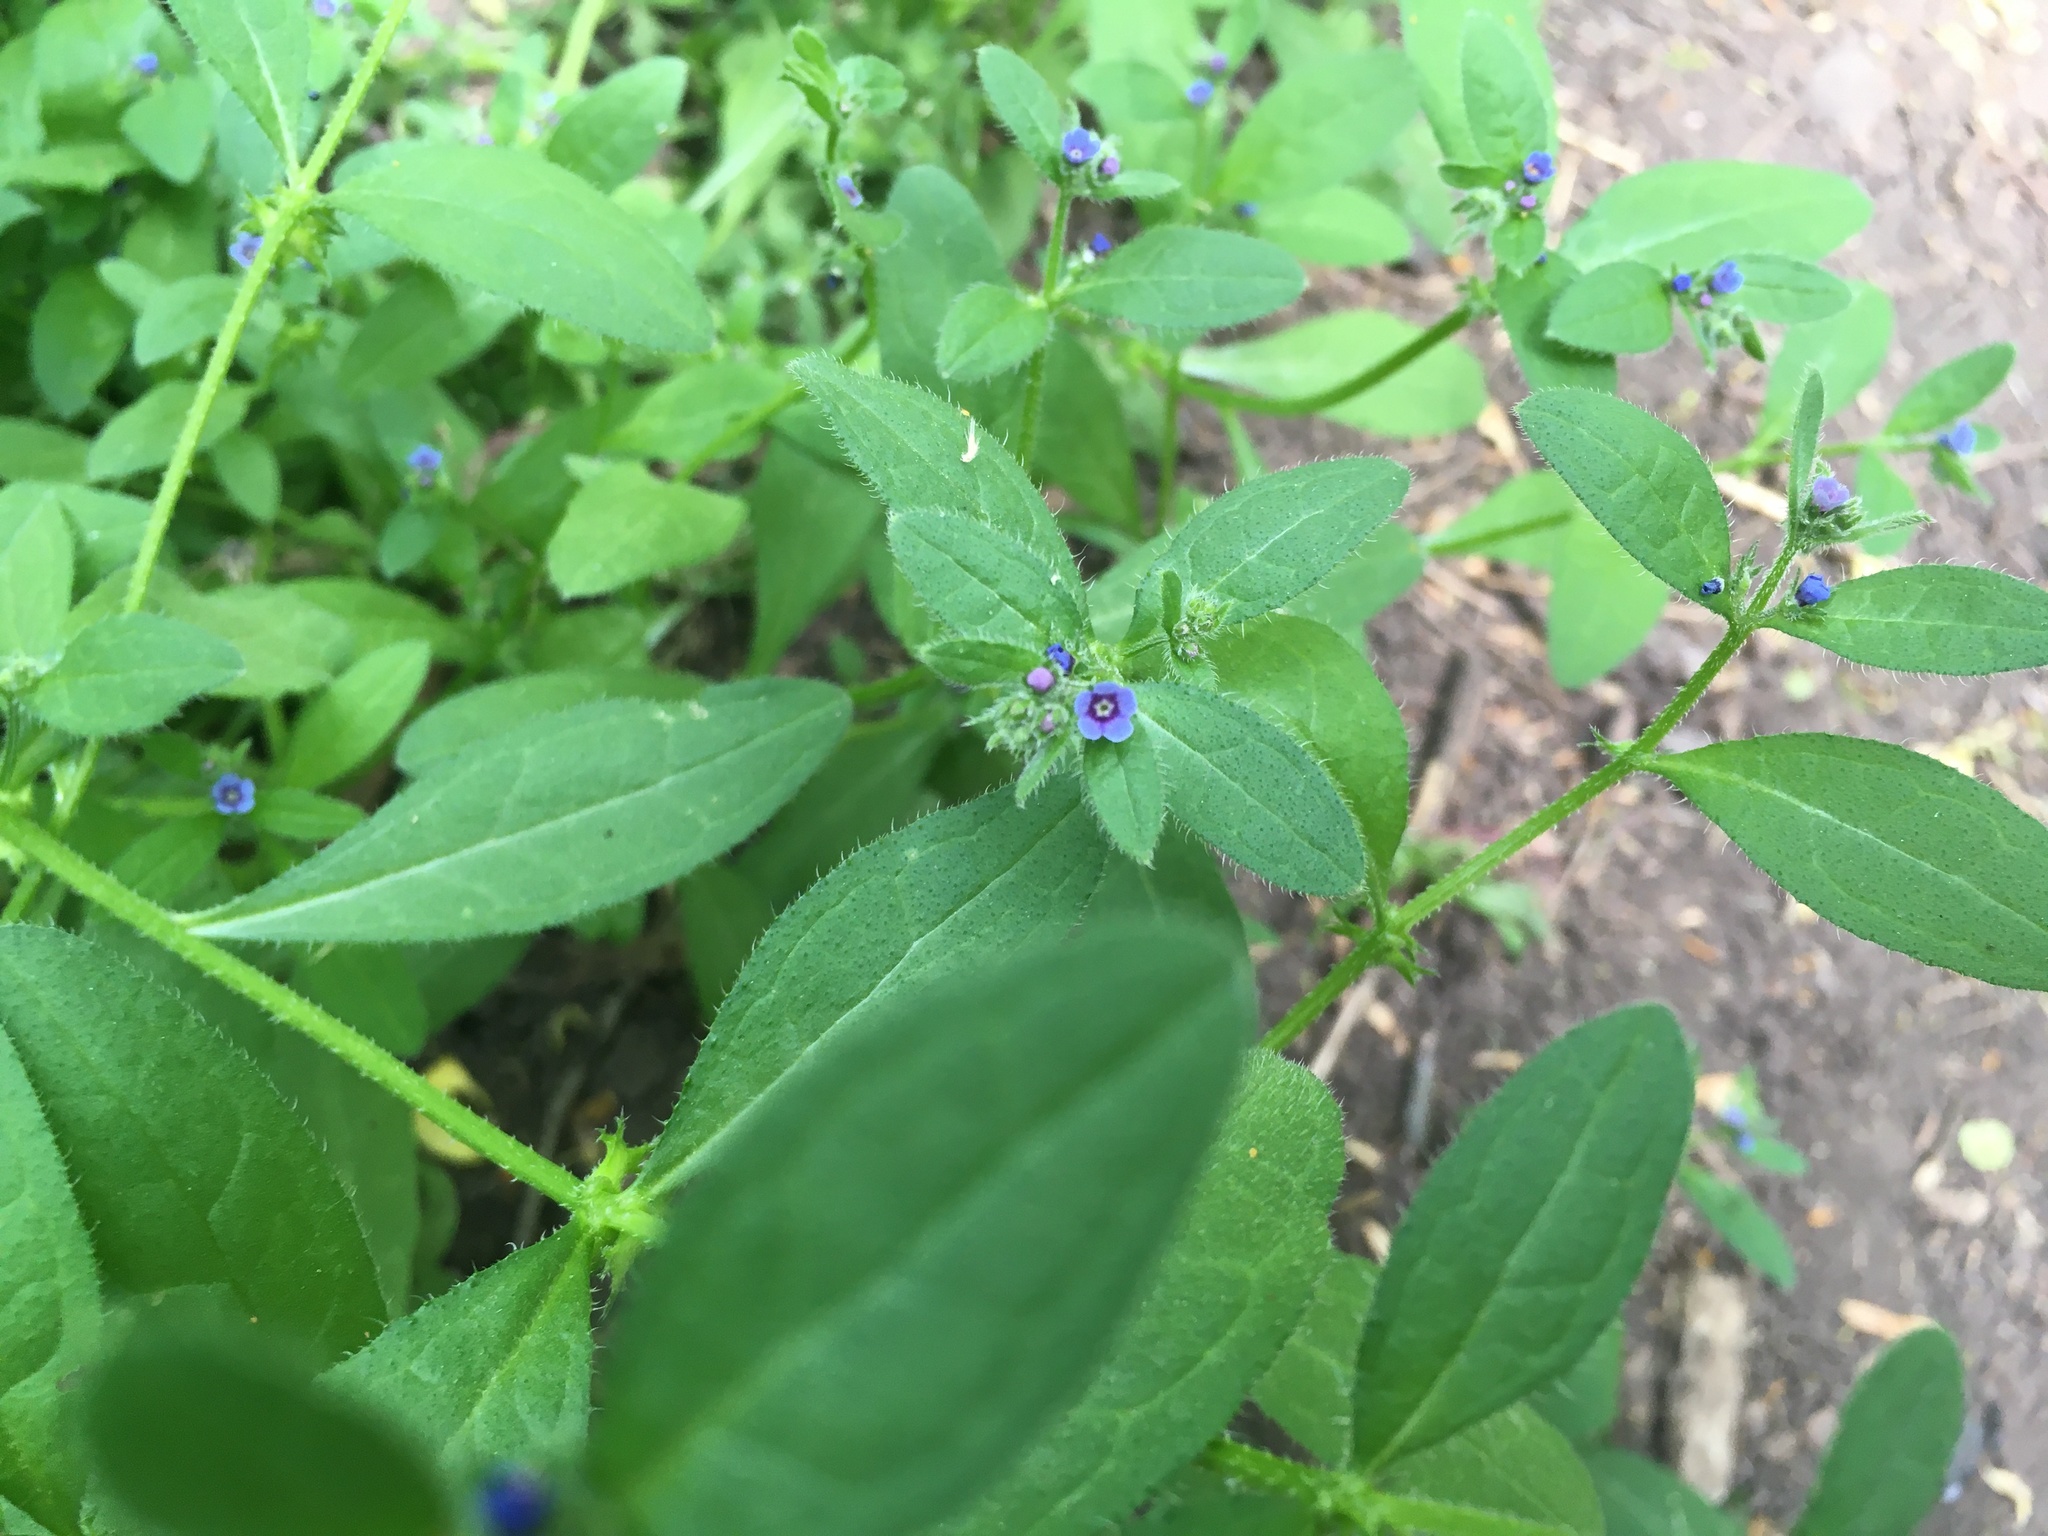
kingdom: Plantae
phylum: Tracheophyta
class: Magnoliopsida
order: Boraginales
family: Boraginaceae
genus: Asperugo
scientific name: Asperugo procumbens
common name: Madwort
